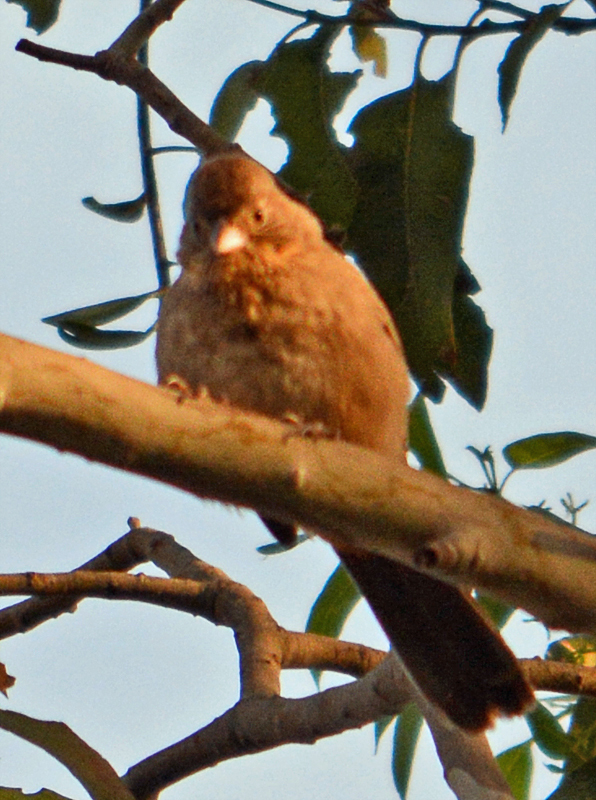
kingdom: Animalia
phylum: Chordata
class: Aves
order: Passeriformes
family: Passerellidae
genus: Melozone
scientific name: Melozone fusca
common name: Canyon towhee
